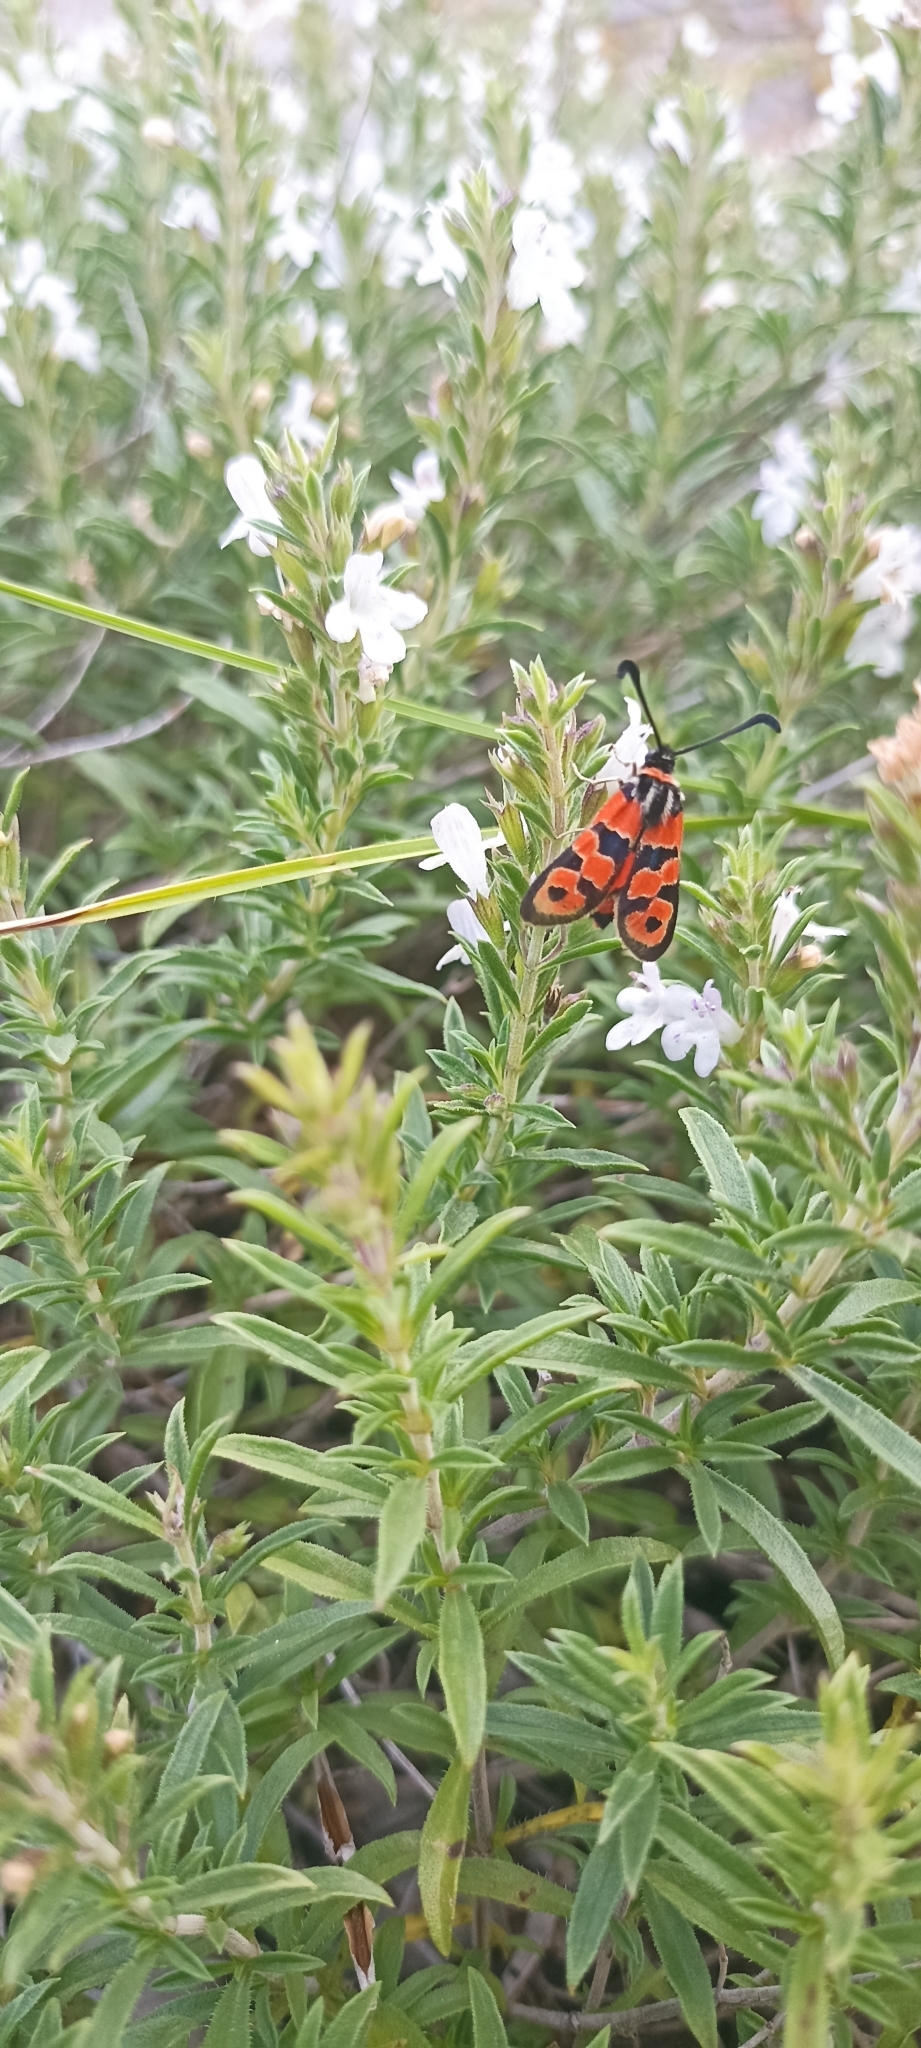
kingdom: Animalia
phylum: Arthropoda
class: Insecta
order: Lepidoptera
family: Zygaenidae
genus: Zygaena
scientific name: Zygaena fausta
